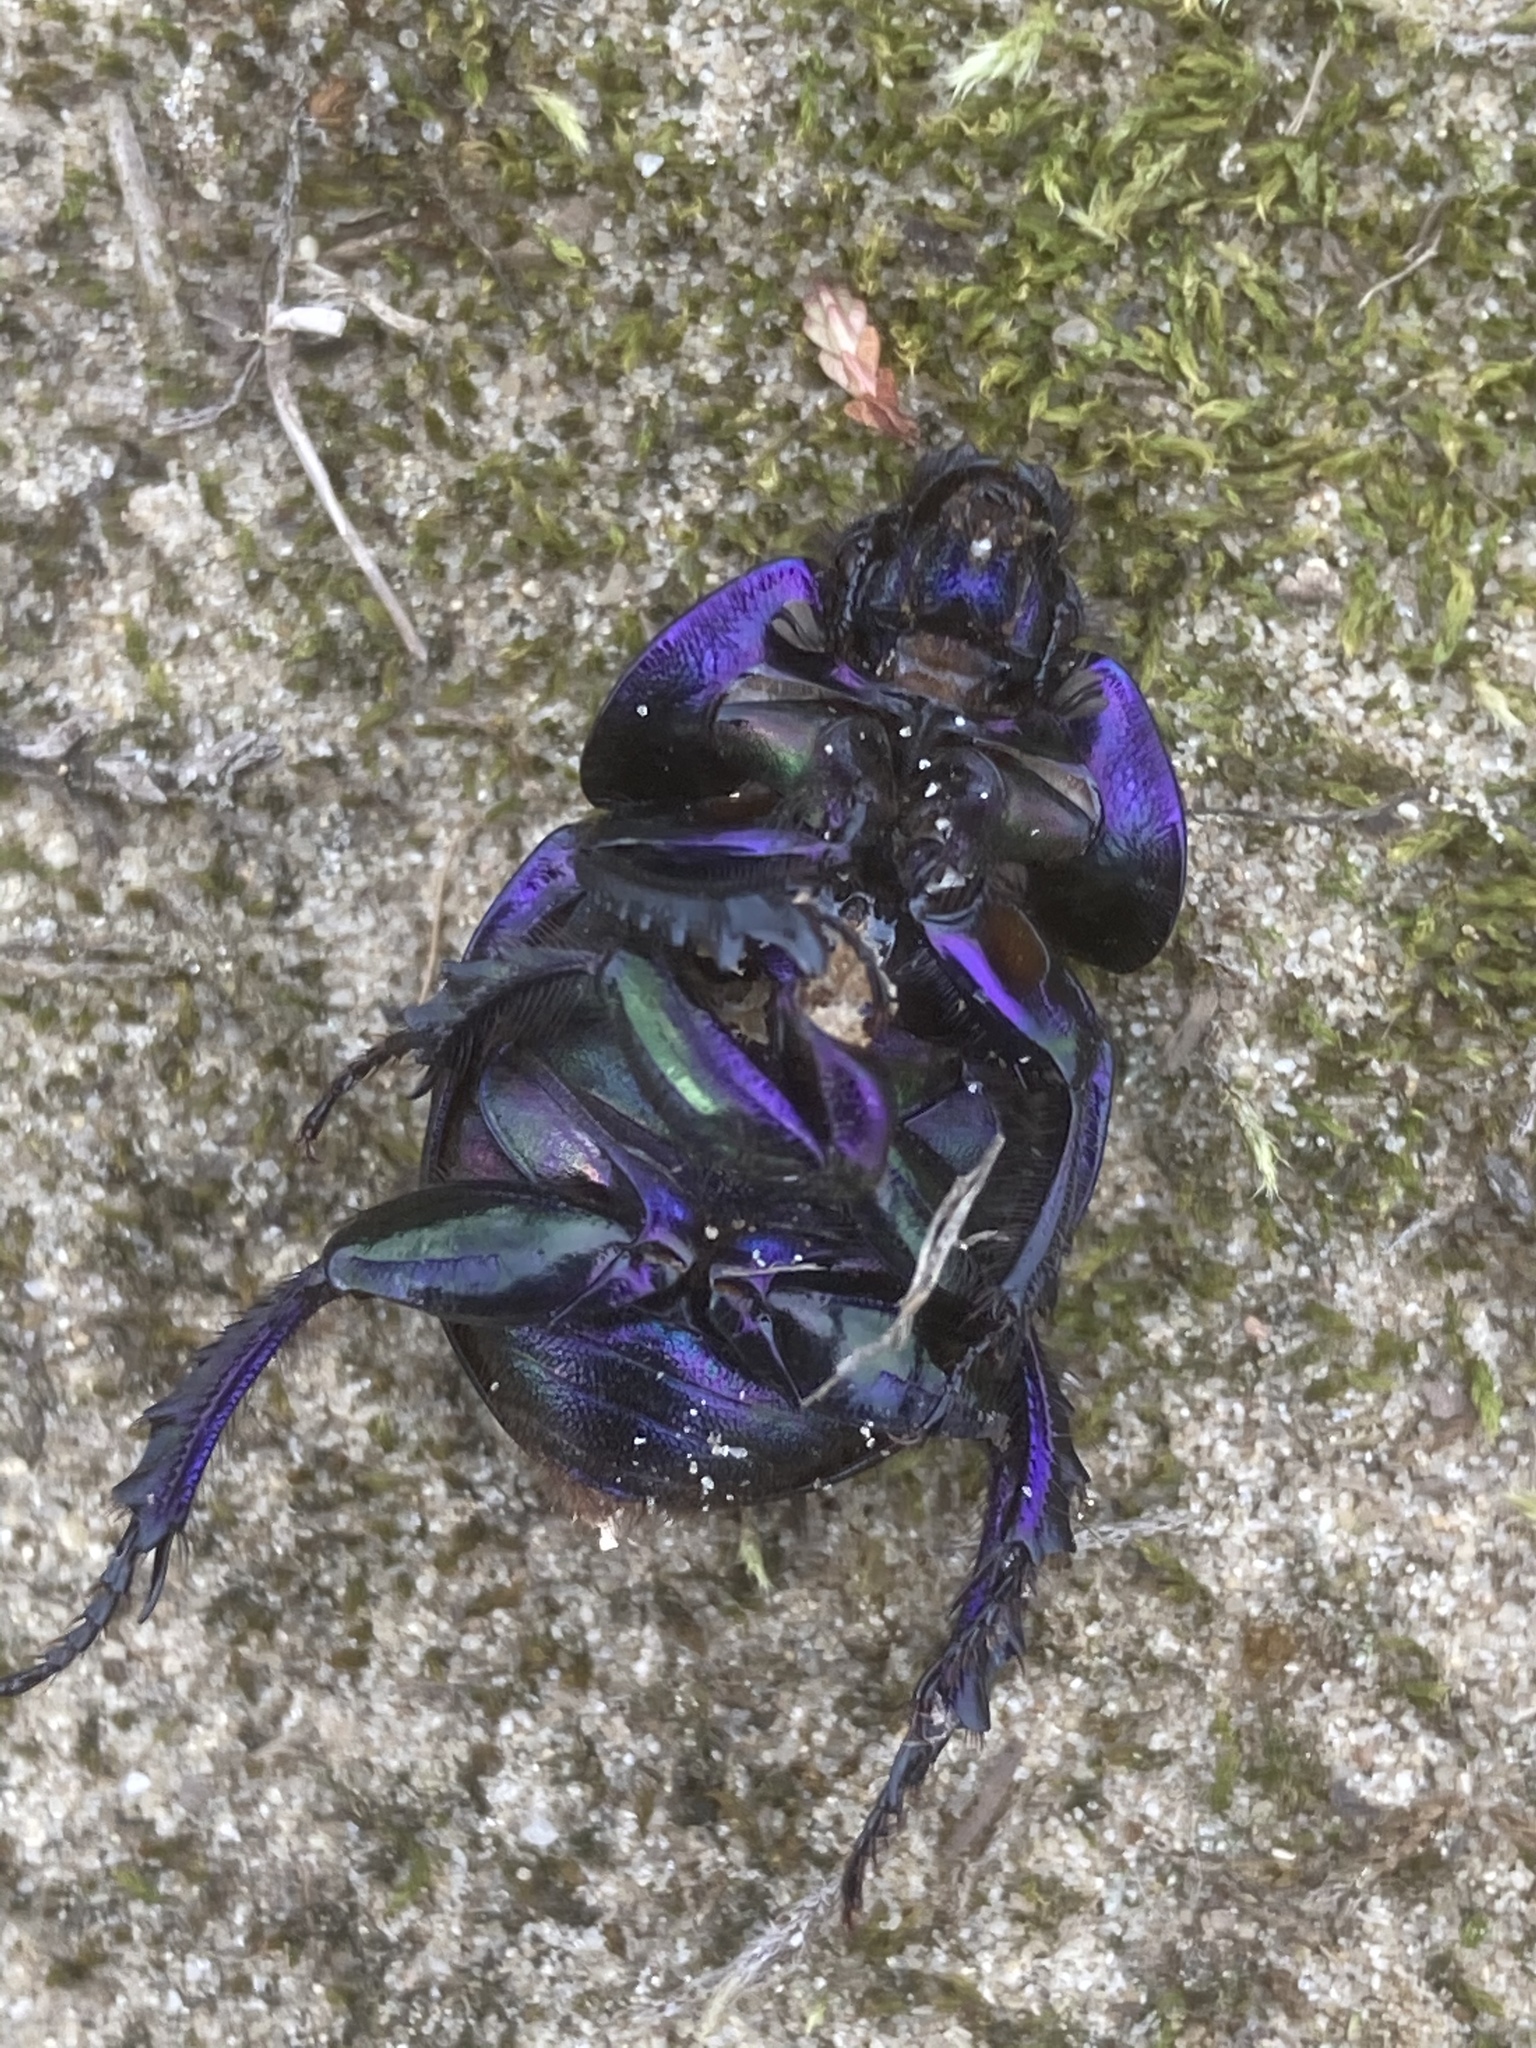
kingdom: Animalia
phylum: Arthropoda
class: Insecta
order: Coleoptera
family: Geotrupidae
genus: Anoplotrupes
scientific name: Anoplotrupes stercorosus
